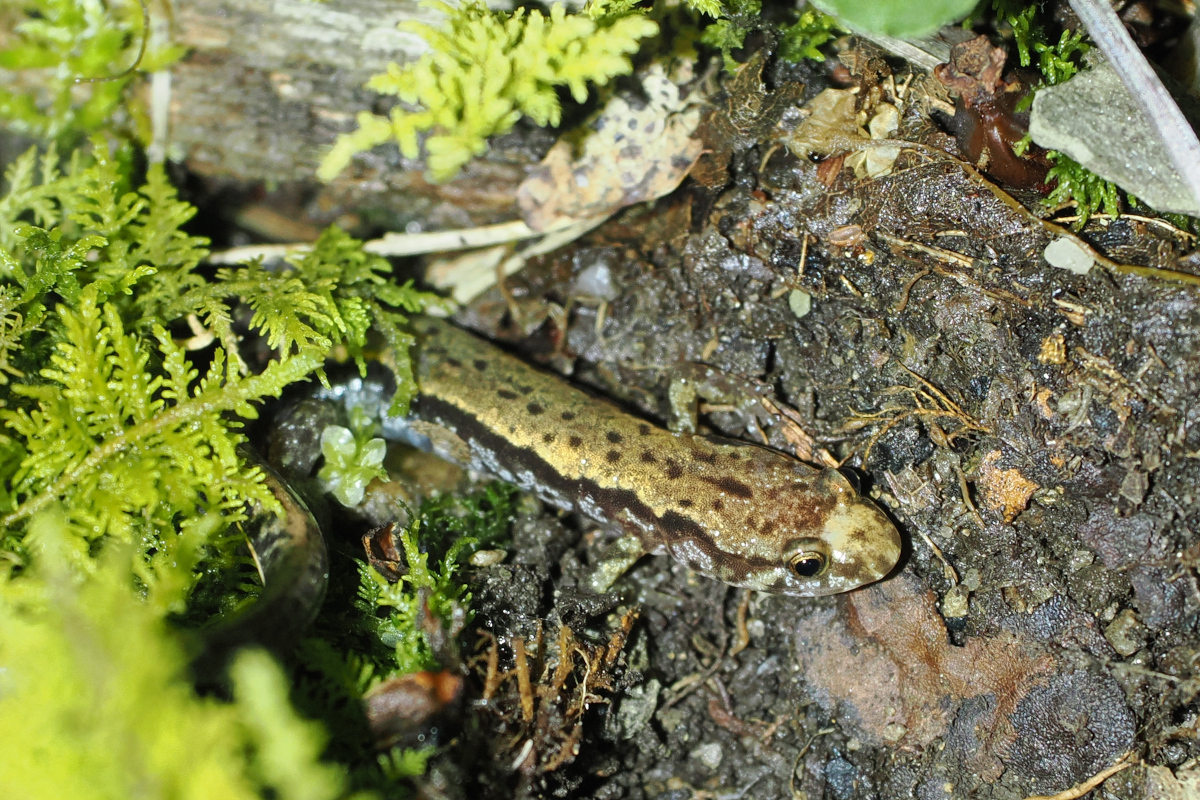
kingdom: Animalia
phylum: Chordata
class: Amphibia
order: Caudata
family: Plethodontidae
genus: Desmognathus
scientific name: Desmognathus orestes
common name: Blue ridge dusky salamander
